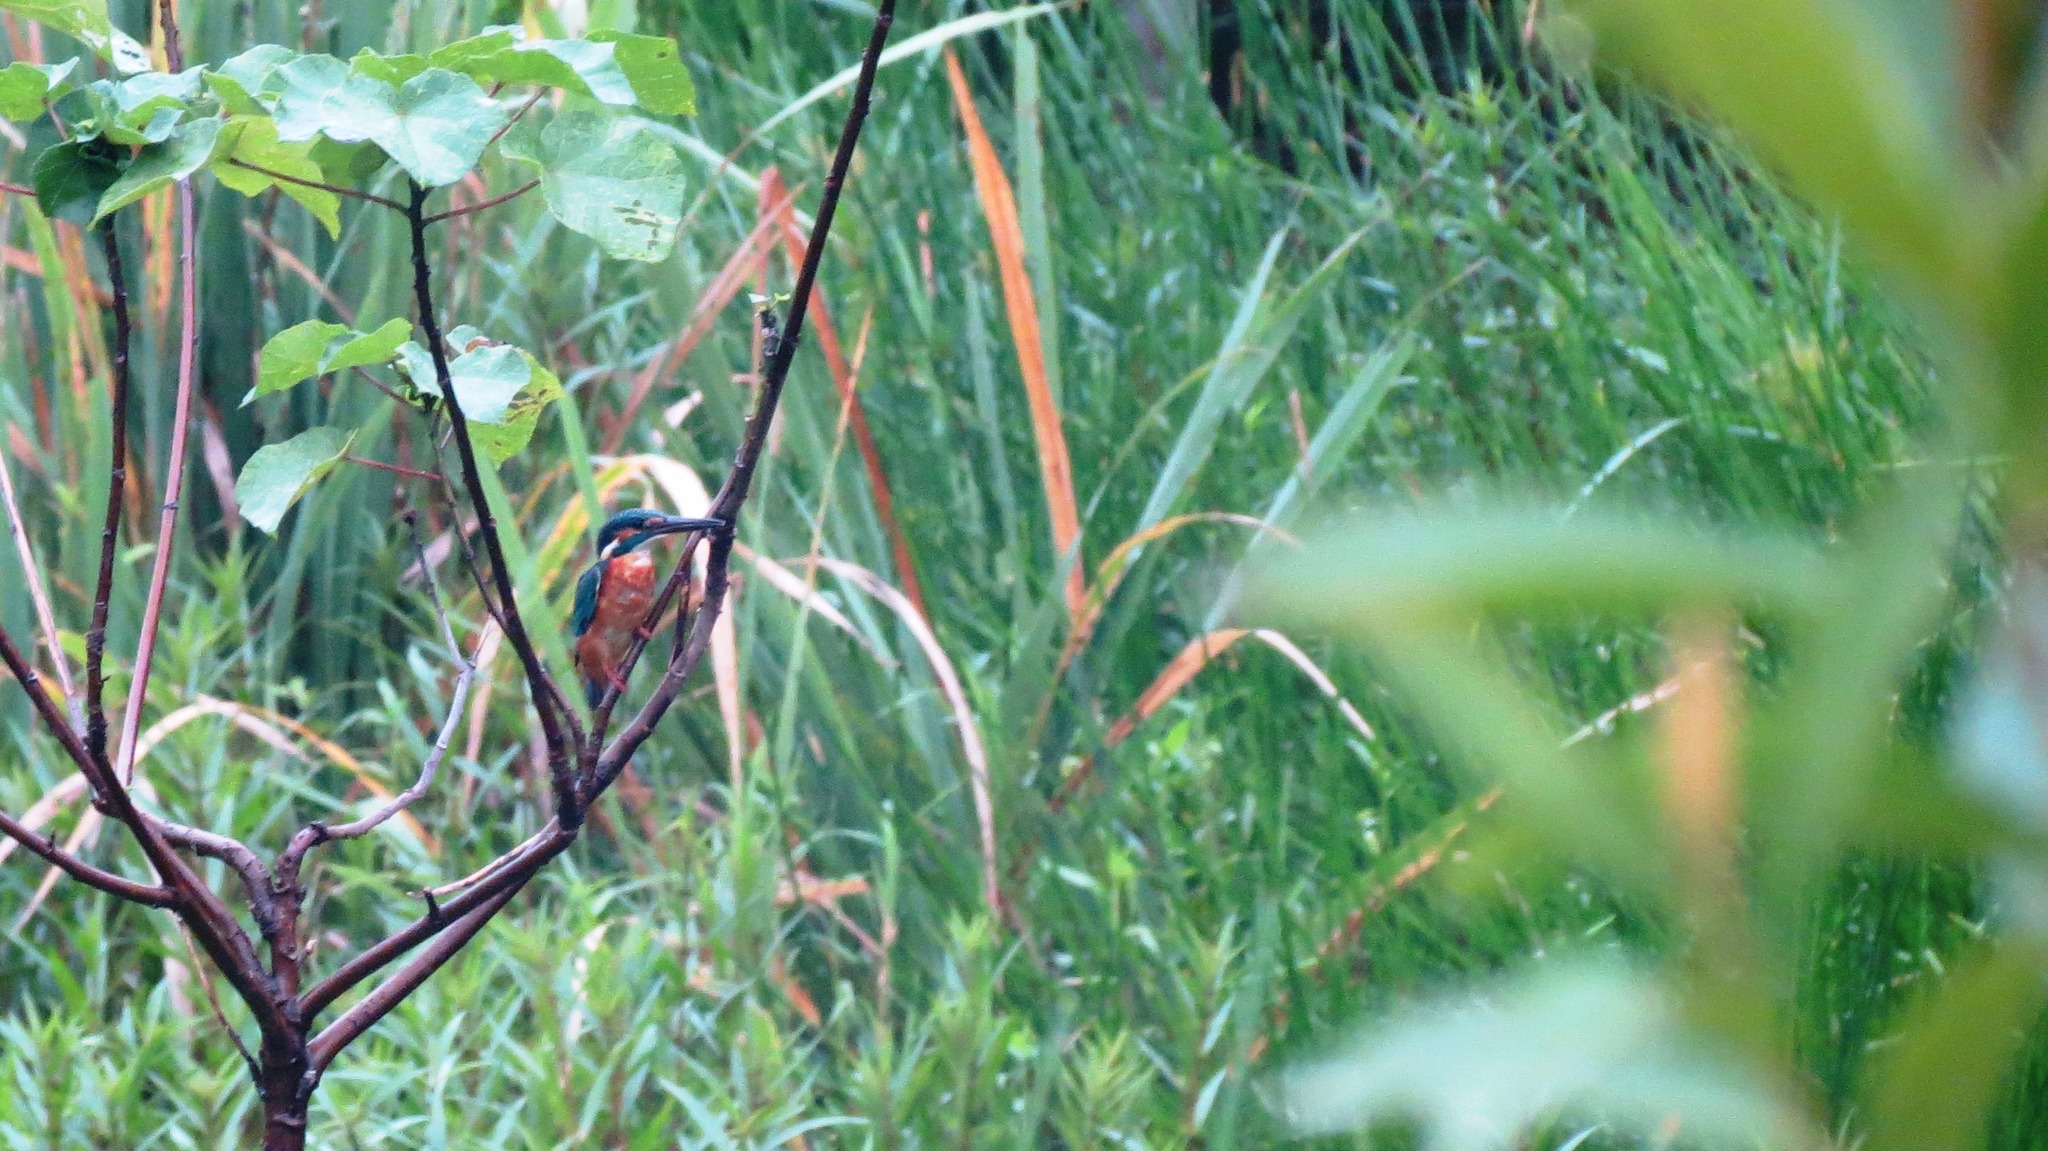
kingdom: Animalia
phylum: Chordata
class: Aves
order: Coraciiformes
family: Alcedinidae
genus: Alcedo
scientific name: Alcedo atthis
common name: Common kingfisher
